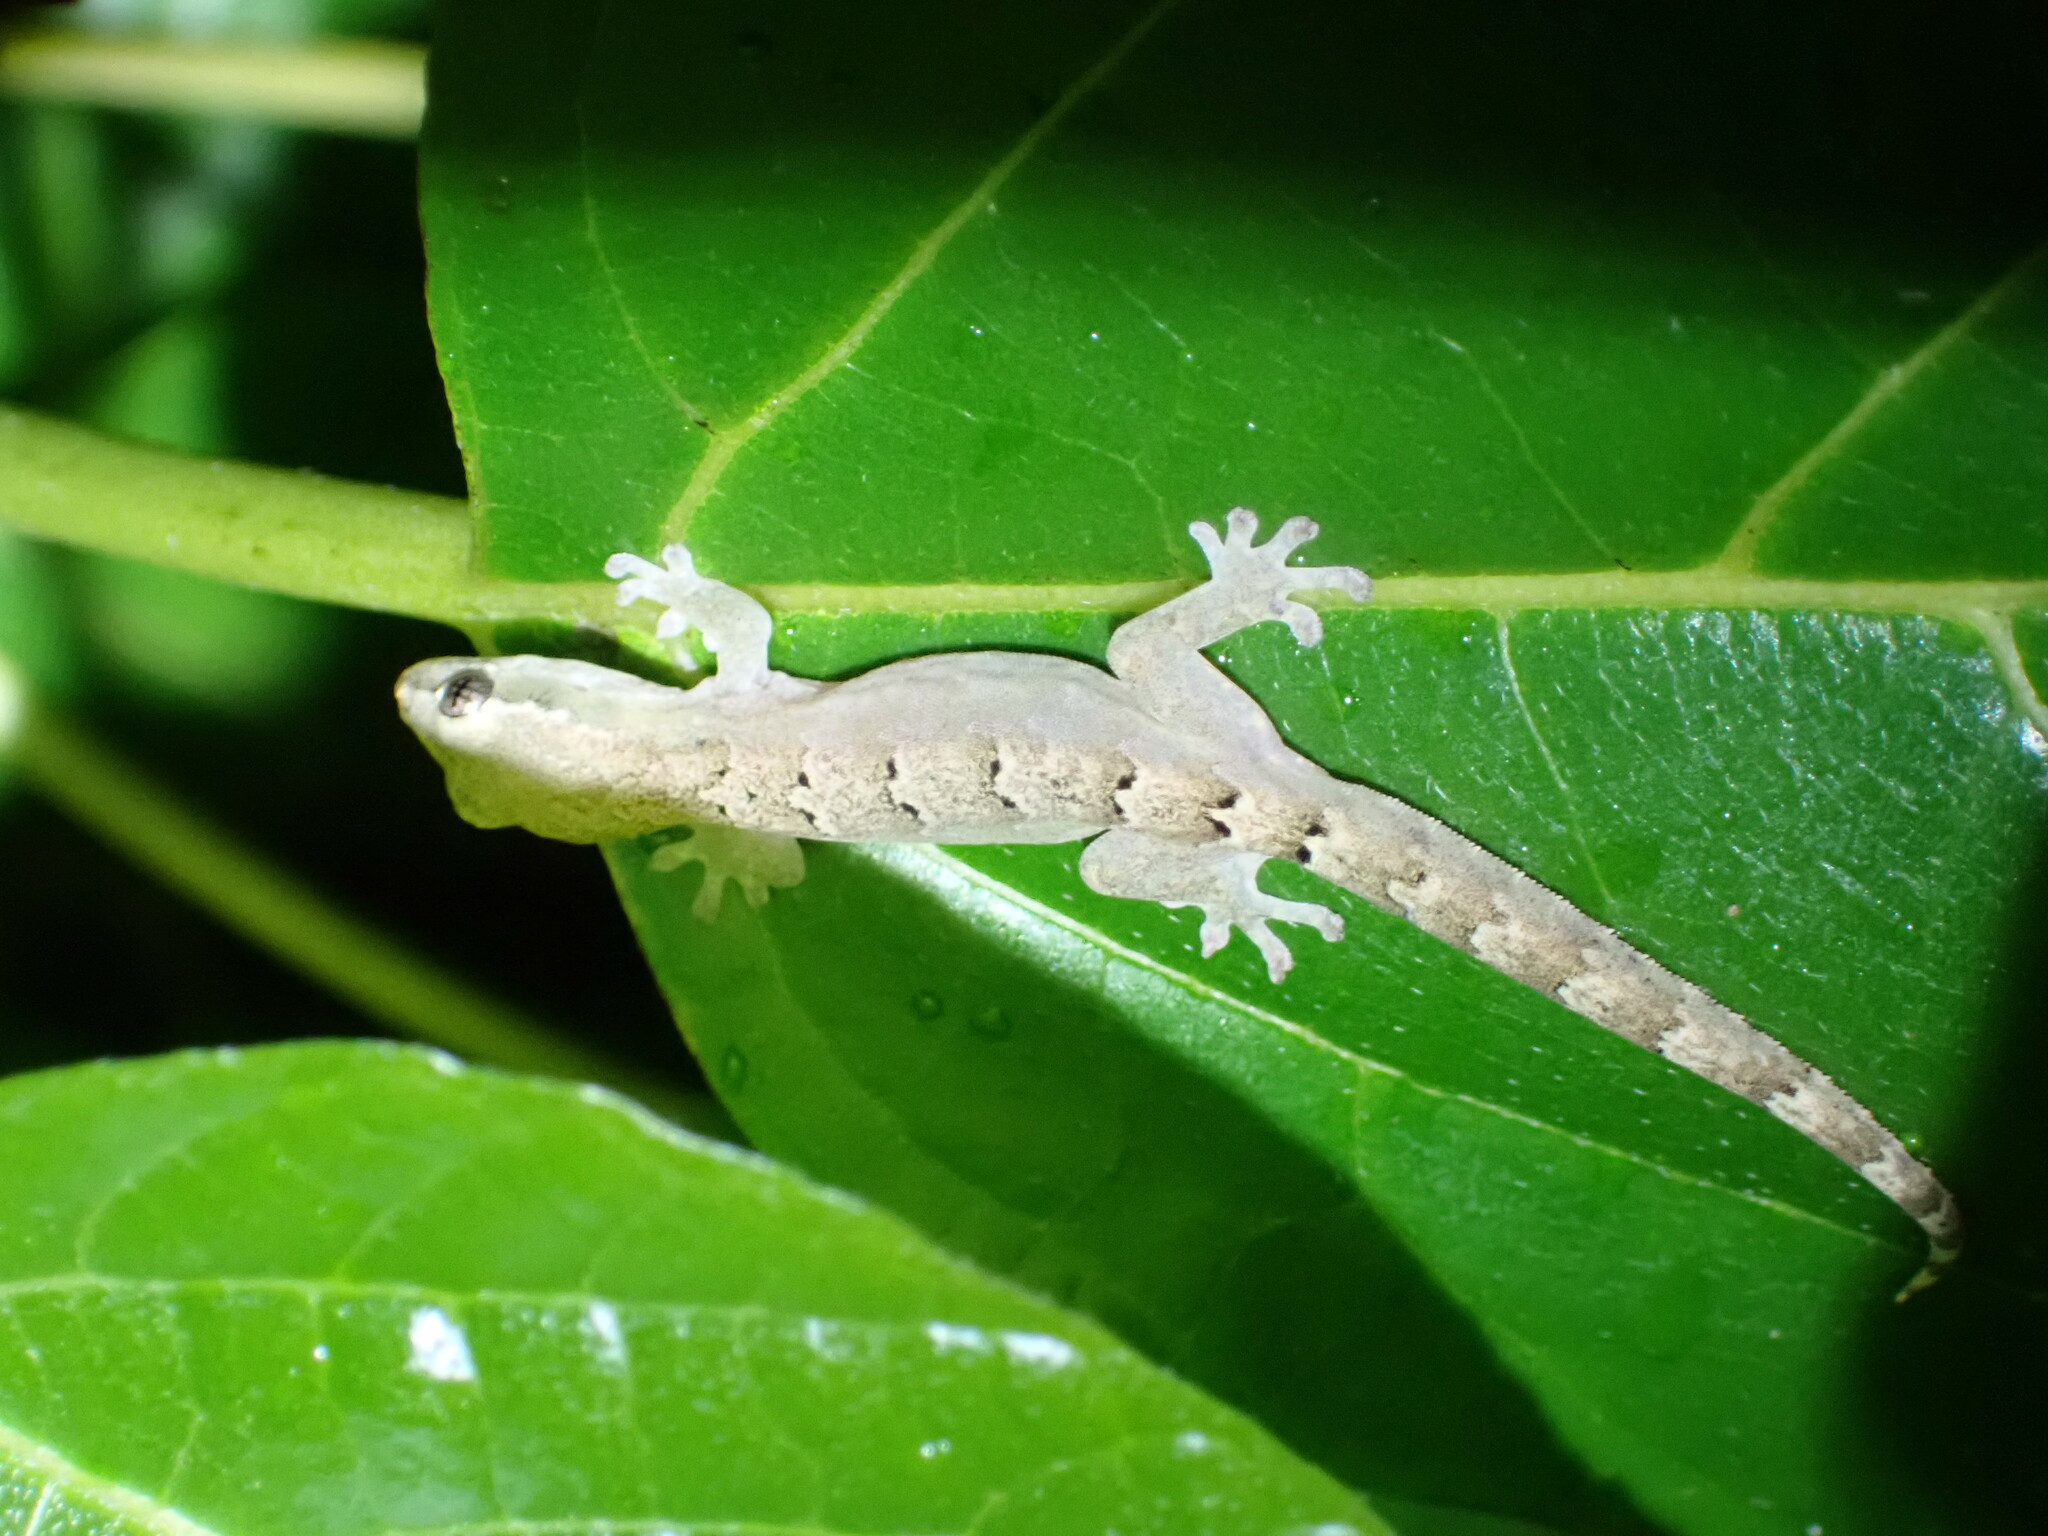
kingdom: Animalia
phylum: Chordata
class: Squamata
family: Gekkonidae
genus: Lepidodactylus
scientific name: Lepidodactylus lugubris
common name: Mourning gecko
